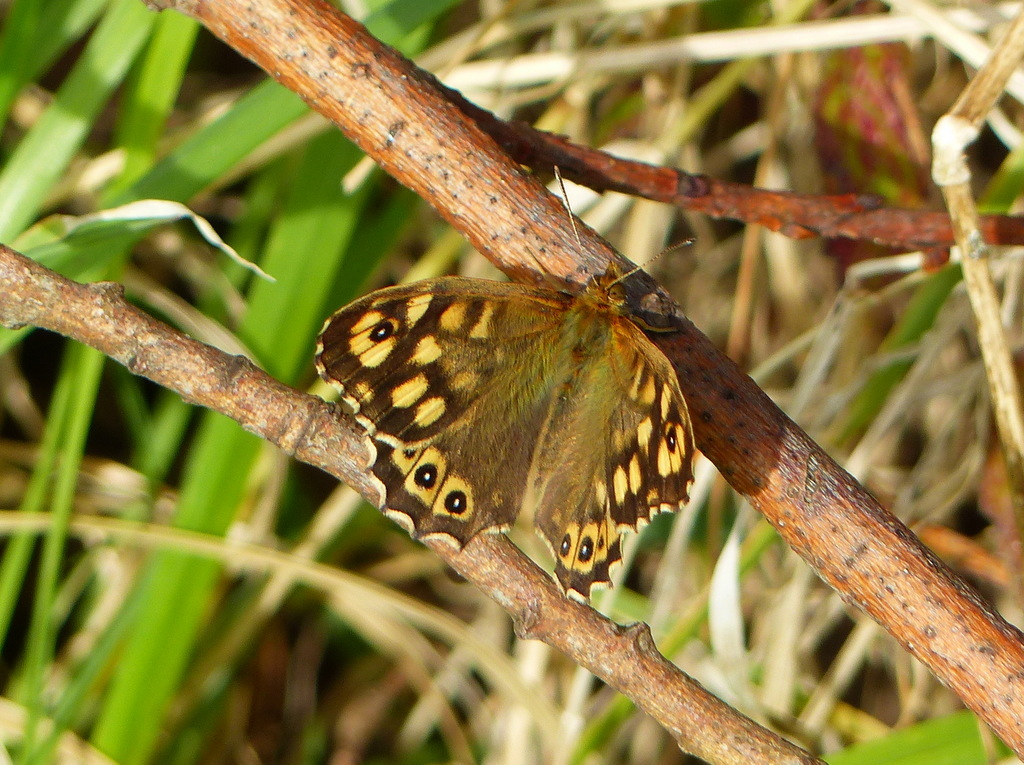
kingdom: Animalia
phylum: Arthropoda
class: Insecta
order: Lepidoptera
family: Nymphalidae
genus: Pararge
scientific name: Pararge aegeria
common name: Speckled wood
